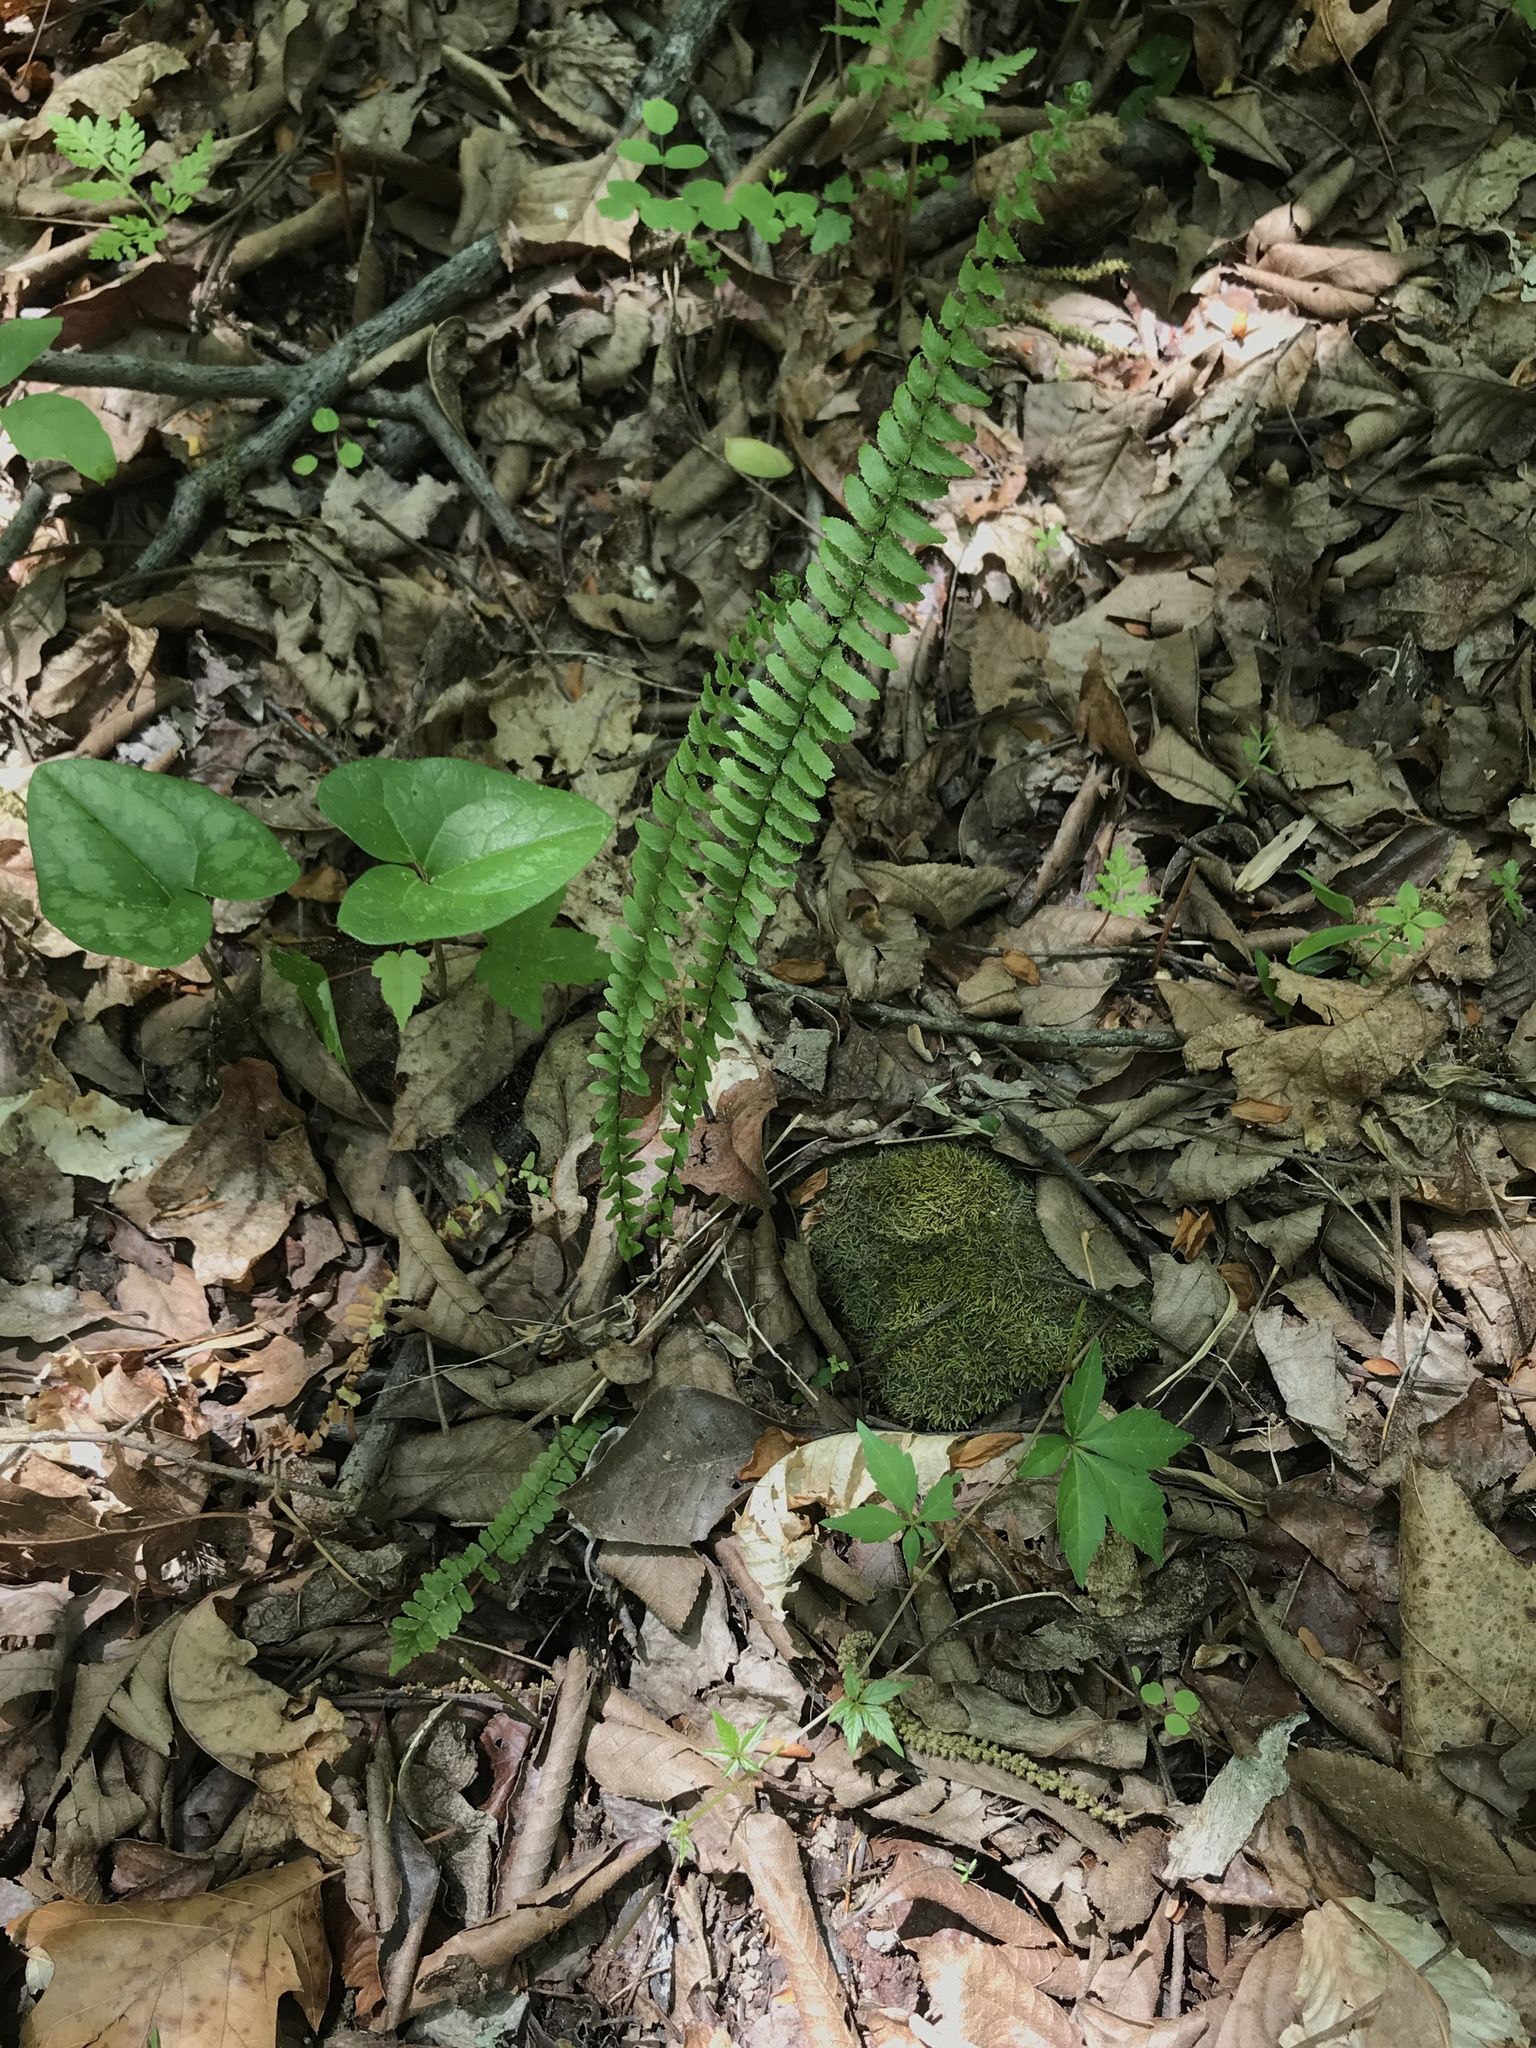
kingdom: Plantae
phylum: Tracheophyta
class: Polypodiopsida
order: Polypodiales
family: Aspleniaceae
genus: Asplenium
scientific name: Asplenium platyneuron
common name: Ebony spleenwort
